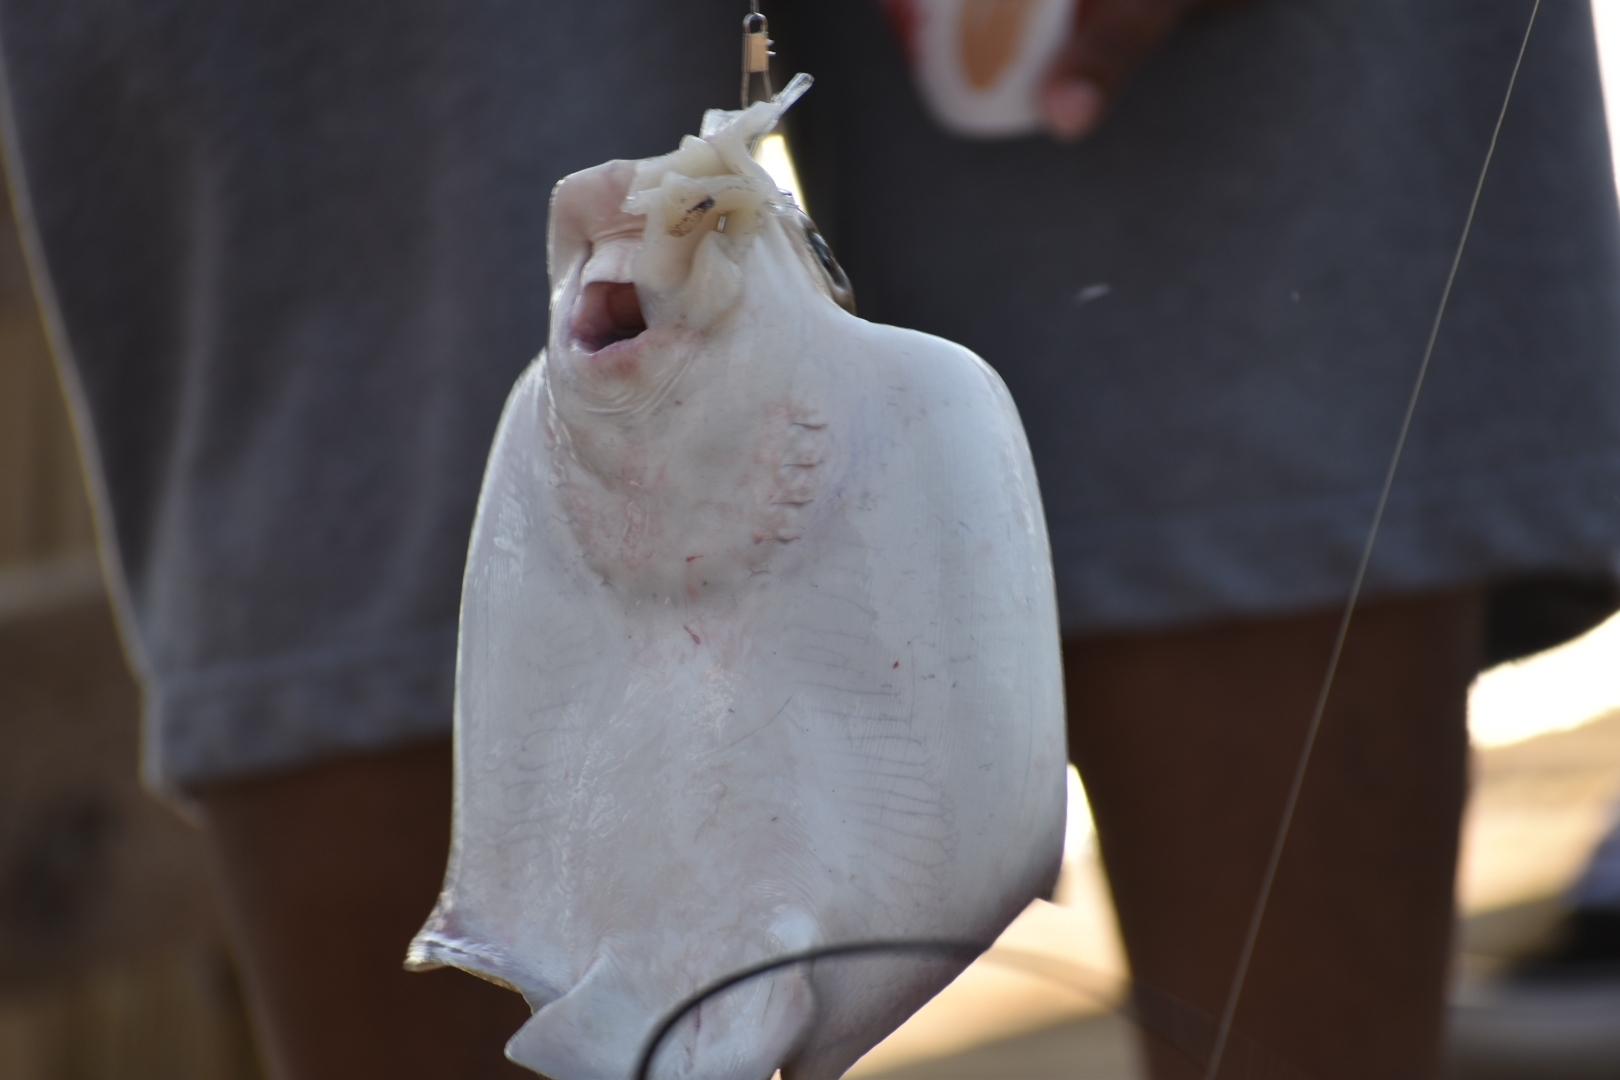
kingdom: Animalia
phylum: Chordata
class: Elasmobranchii
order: Myliobatiformes
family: Myliobatidae
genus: Myliobatis
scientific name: Myliobatis californica
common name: Bat ray
